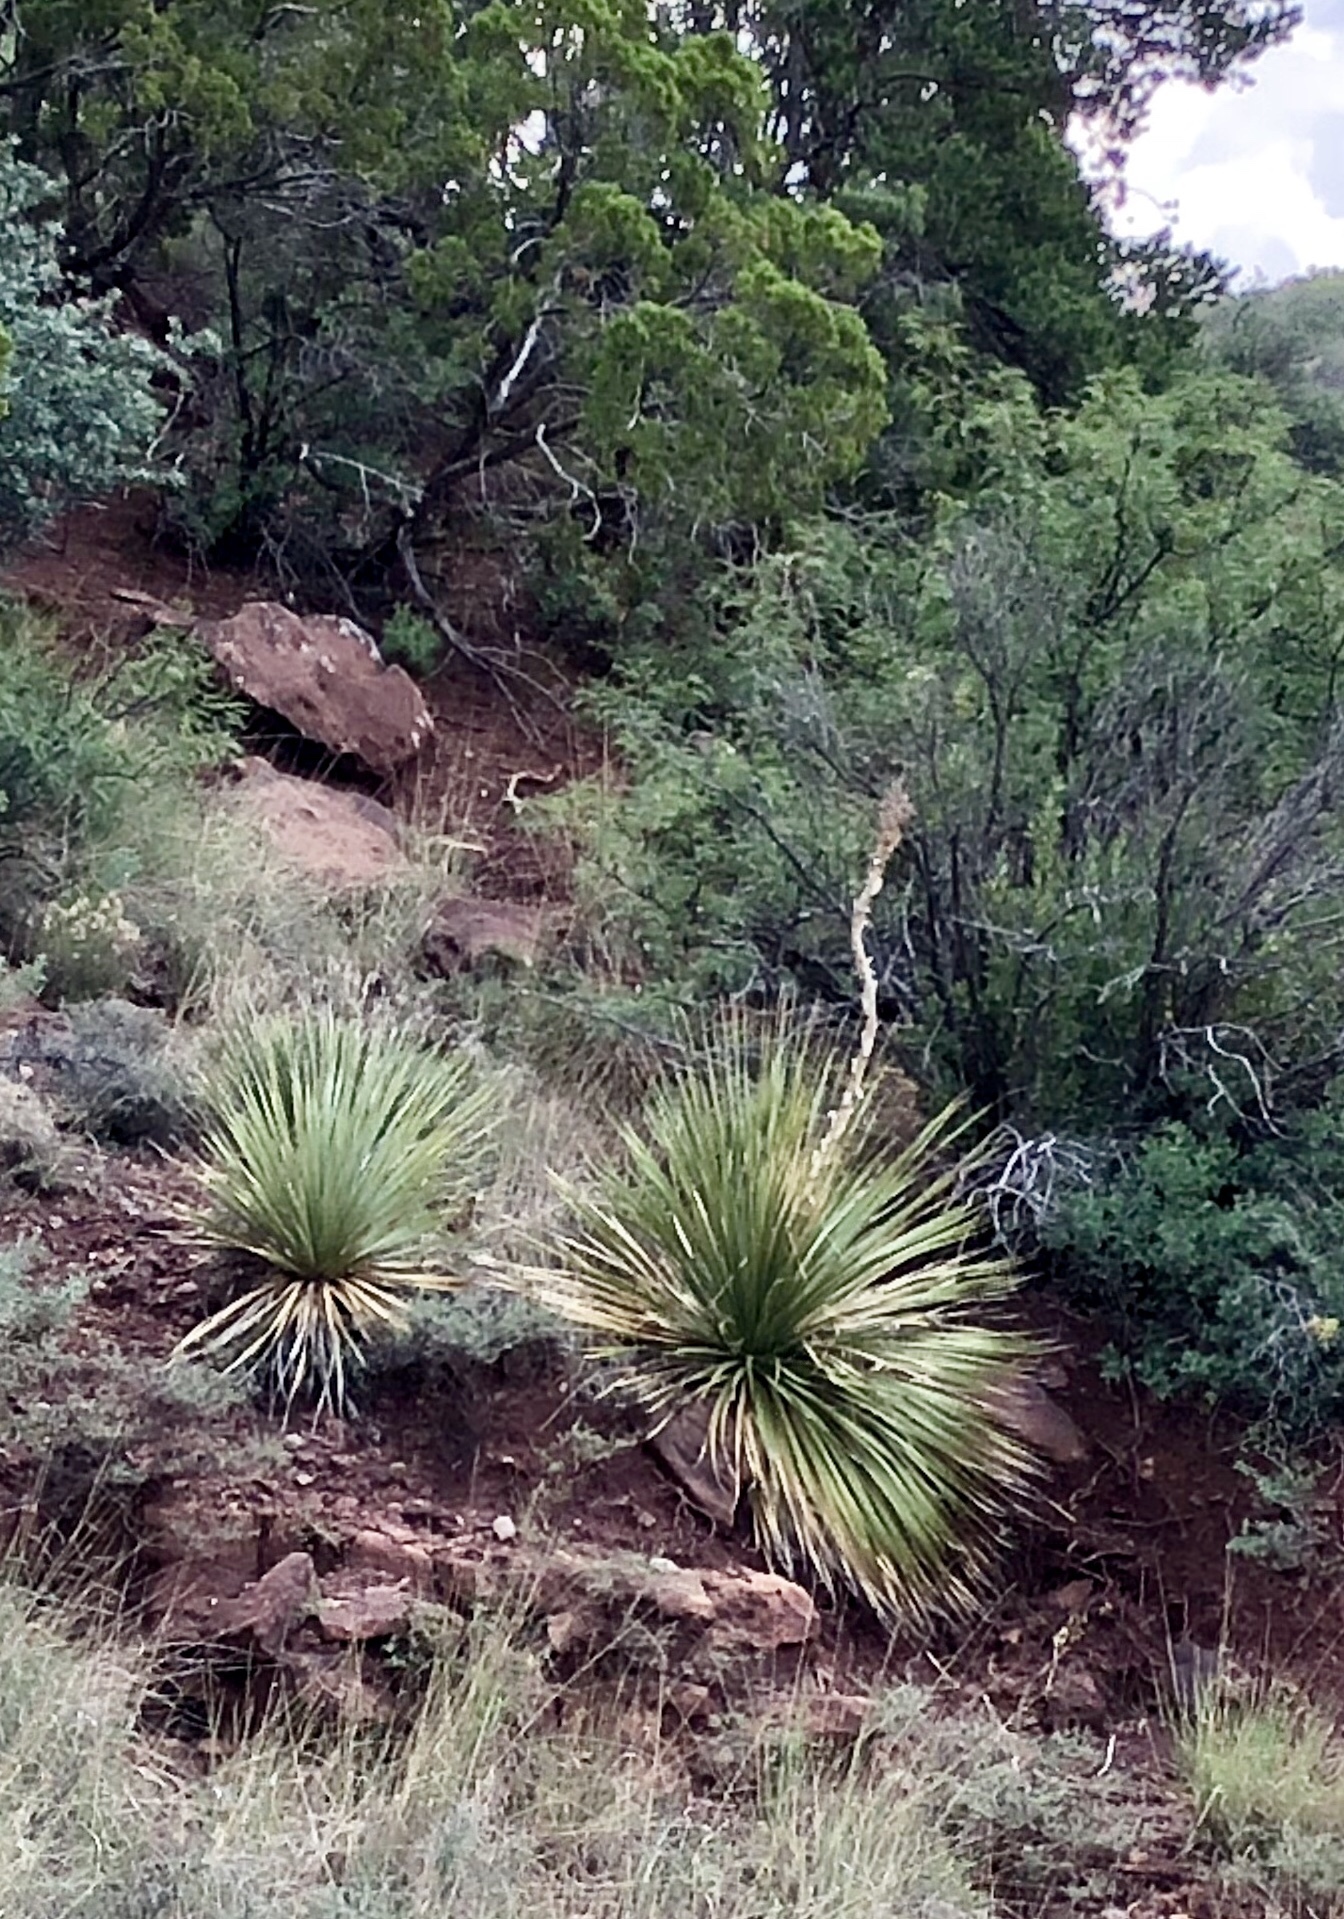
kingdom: Plantae
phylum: Tracheophyta
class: Liliopsida
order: Asparagales
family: Asparagaceae
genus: Dasylirion
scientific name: Dasylirion wheeleri
